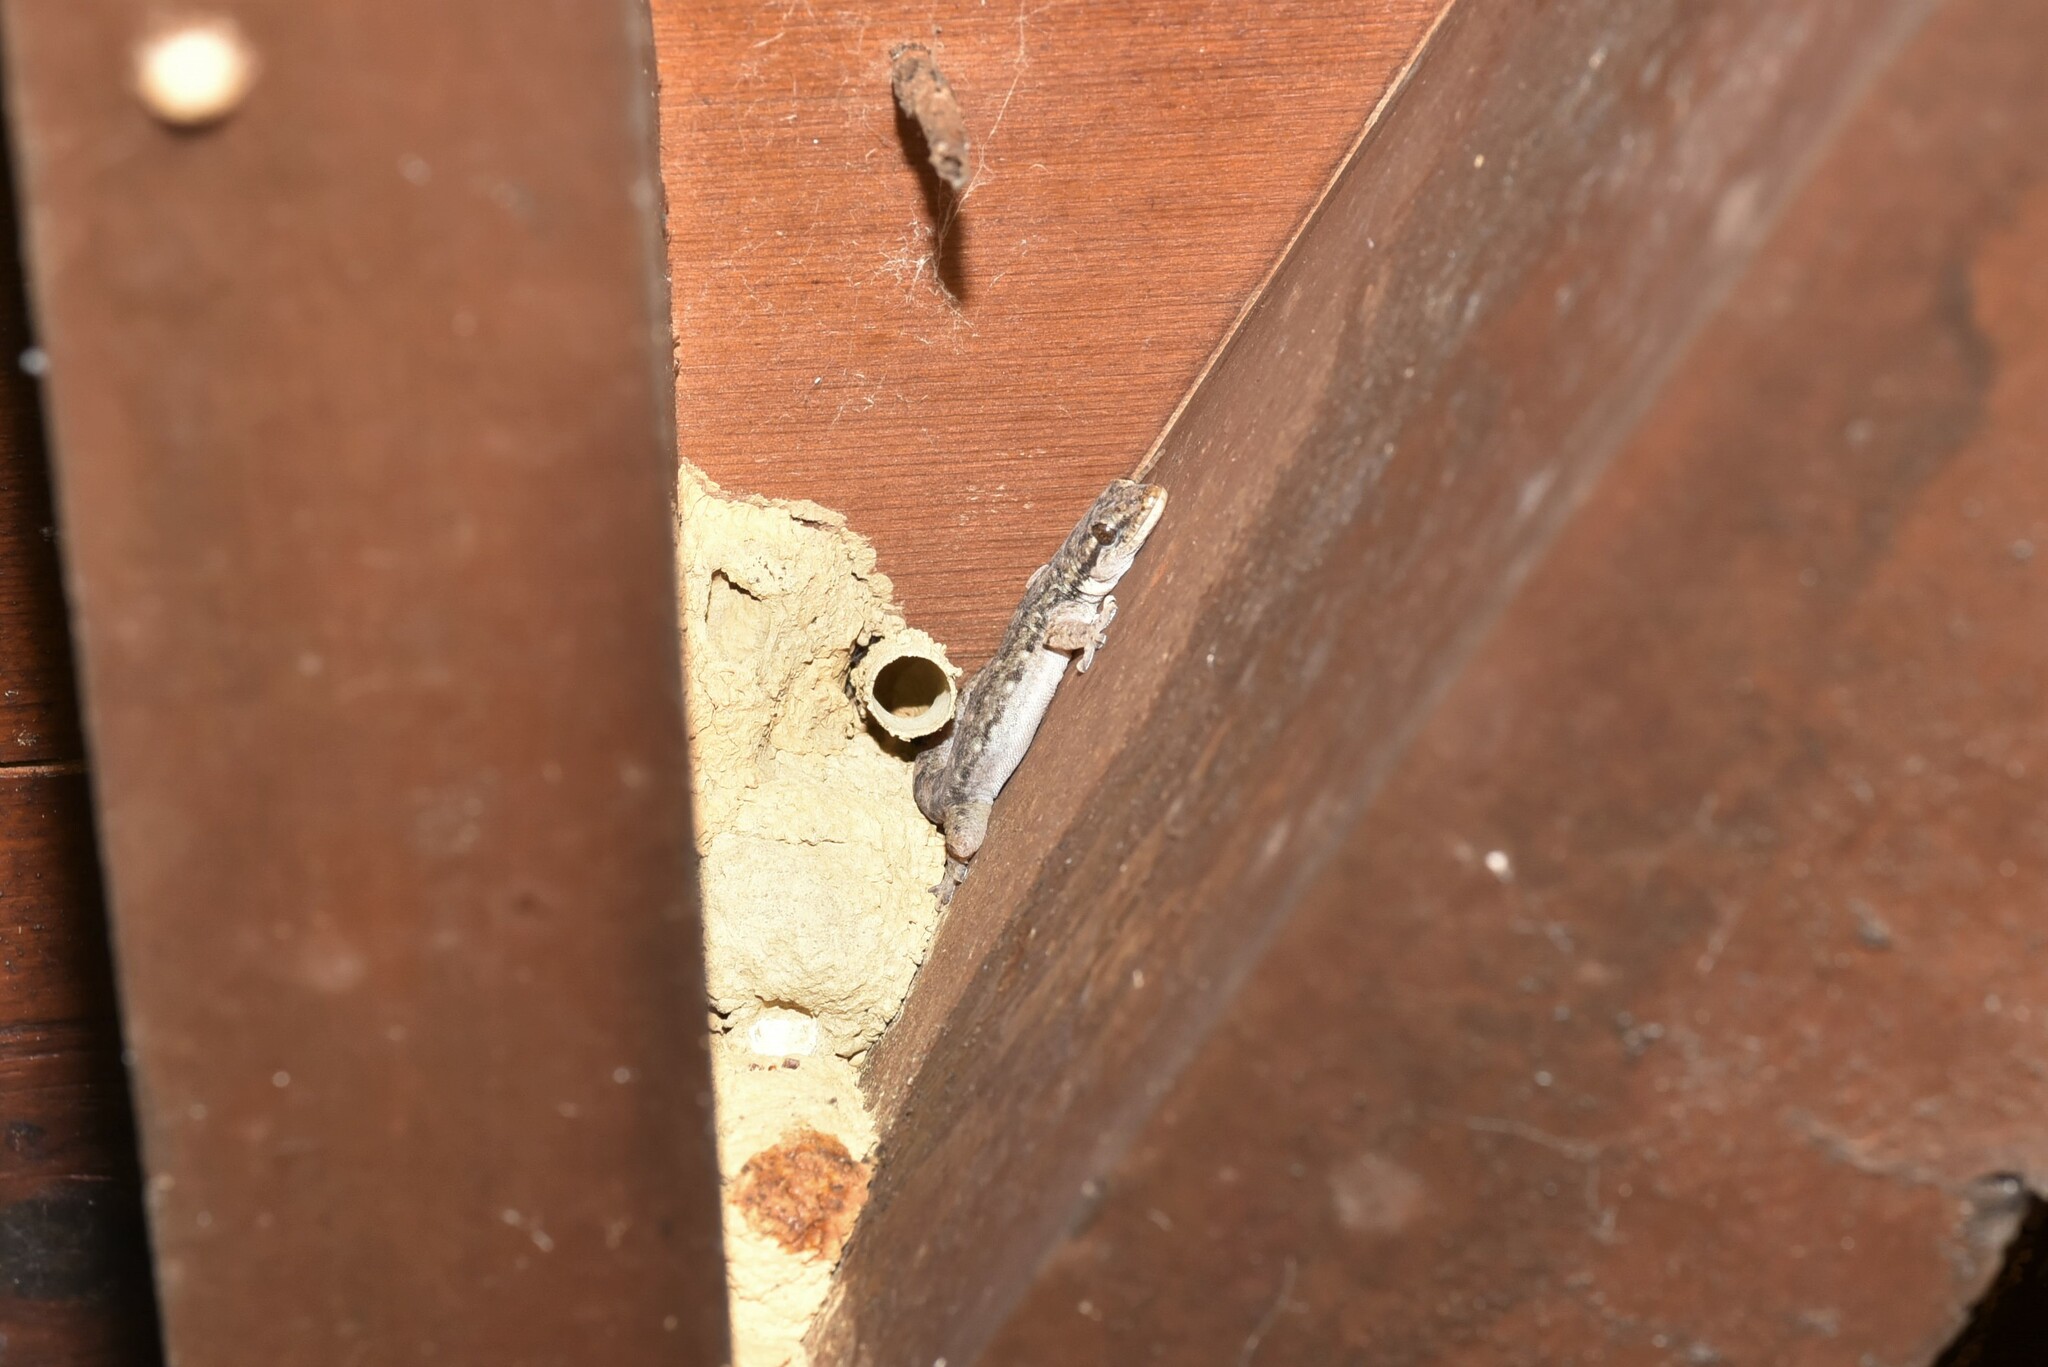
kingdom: Animalia
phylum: Chordata
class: Squamata
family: Gekkonidae
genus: Hemidactylus
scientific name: Hemidactylus bowringii
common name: Oriental leaf-toed gecko
